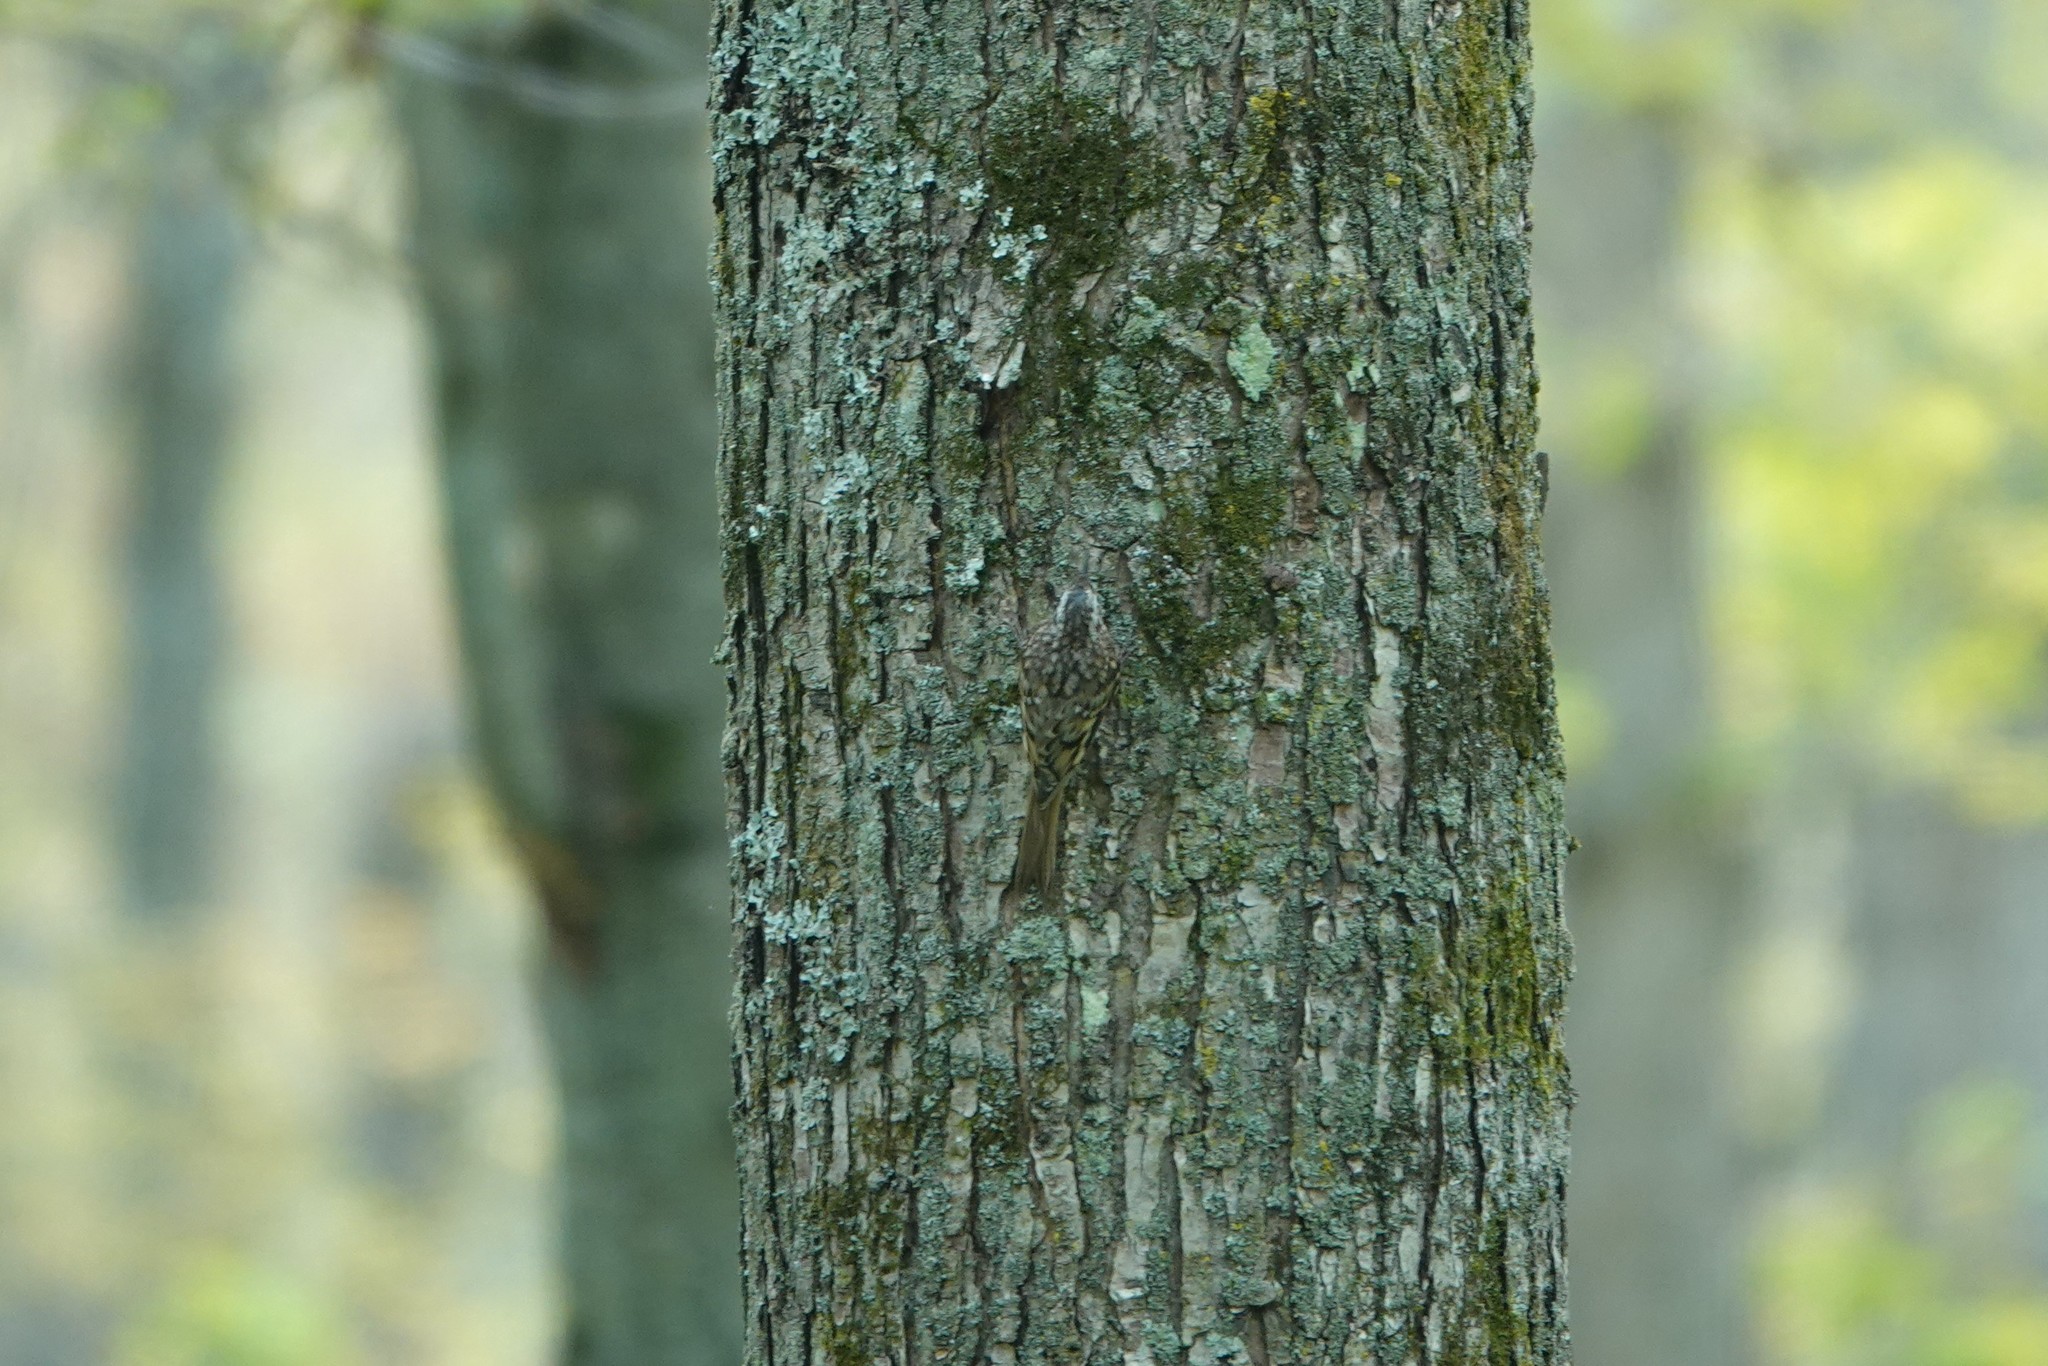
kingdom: Animalia
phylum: Chordata
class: Aves
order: Passeriformes
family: Certhiidae
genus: Certhia
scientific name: Certhia americana
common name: Brown creeper
